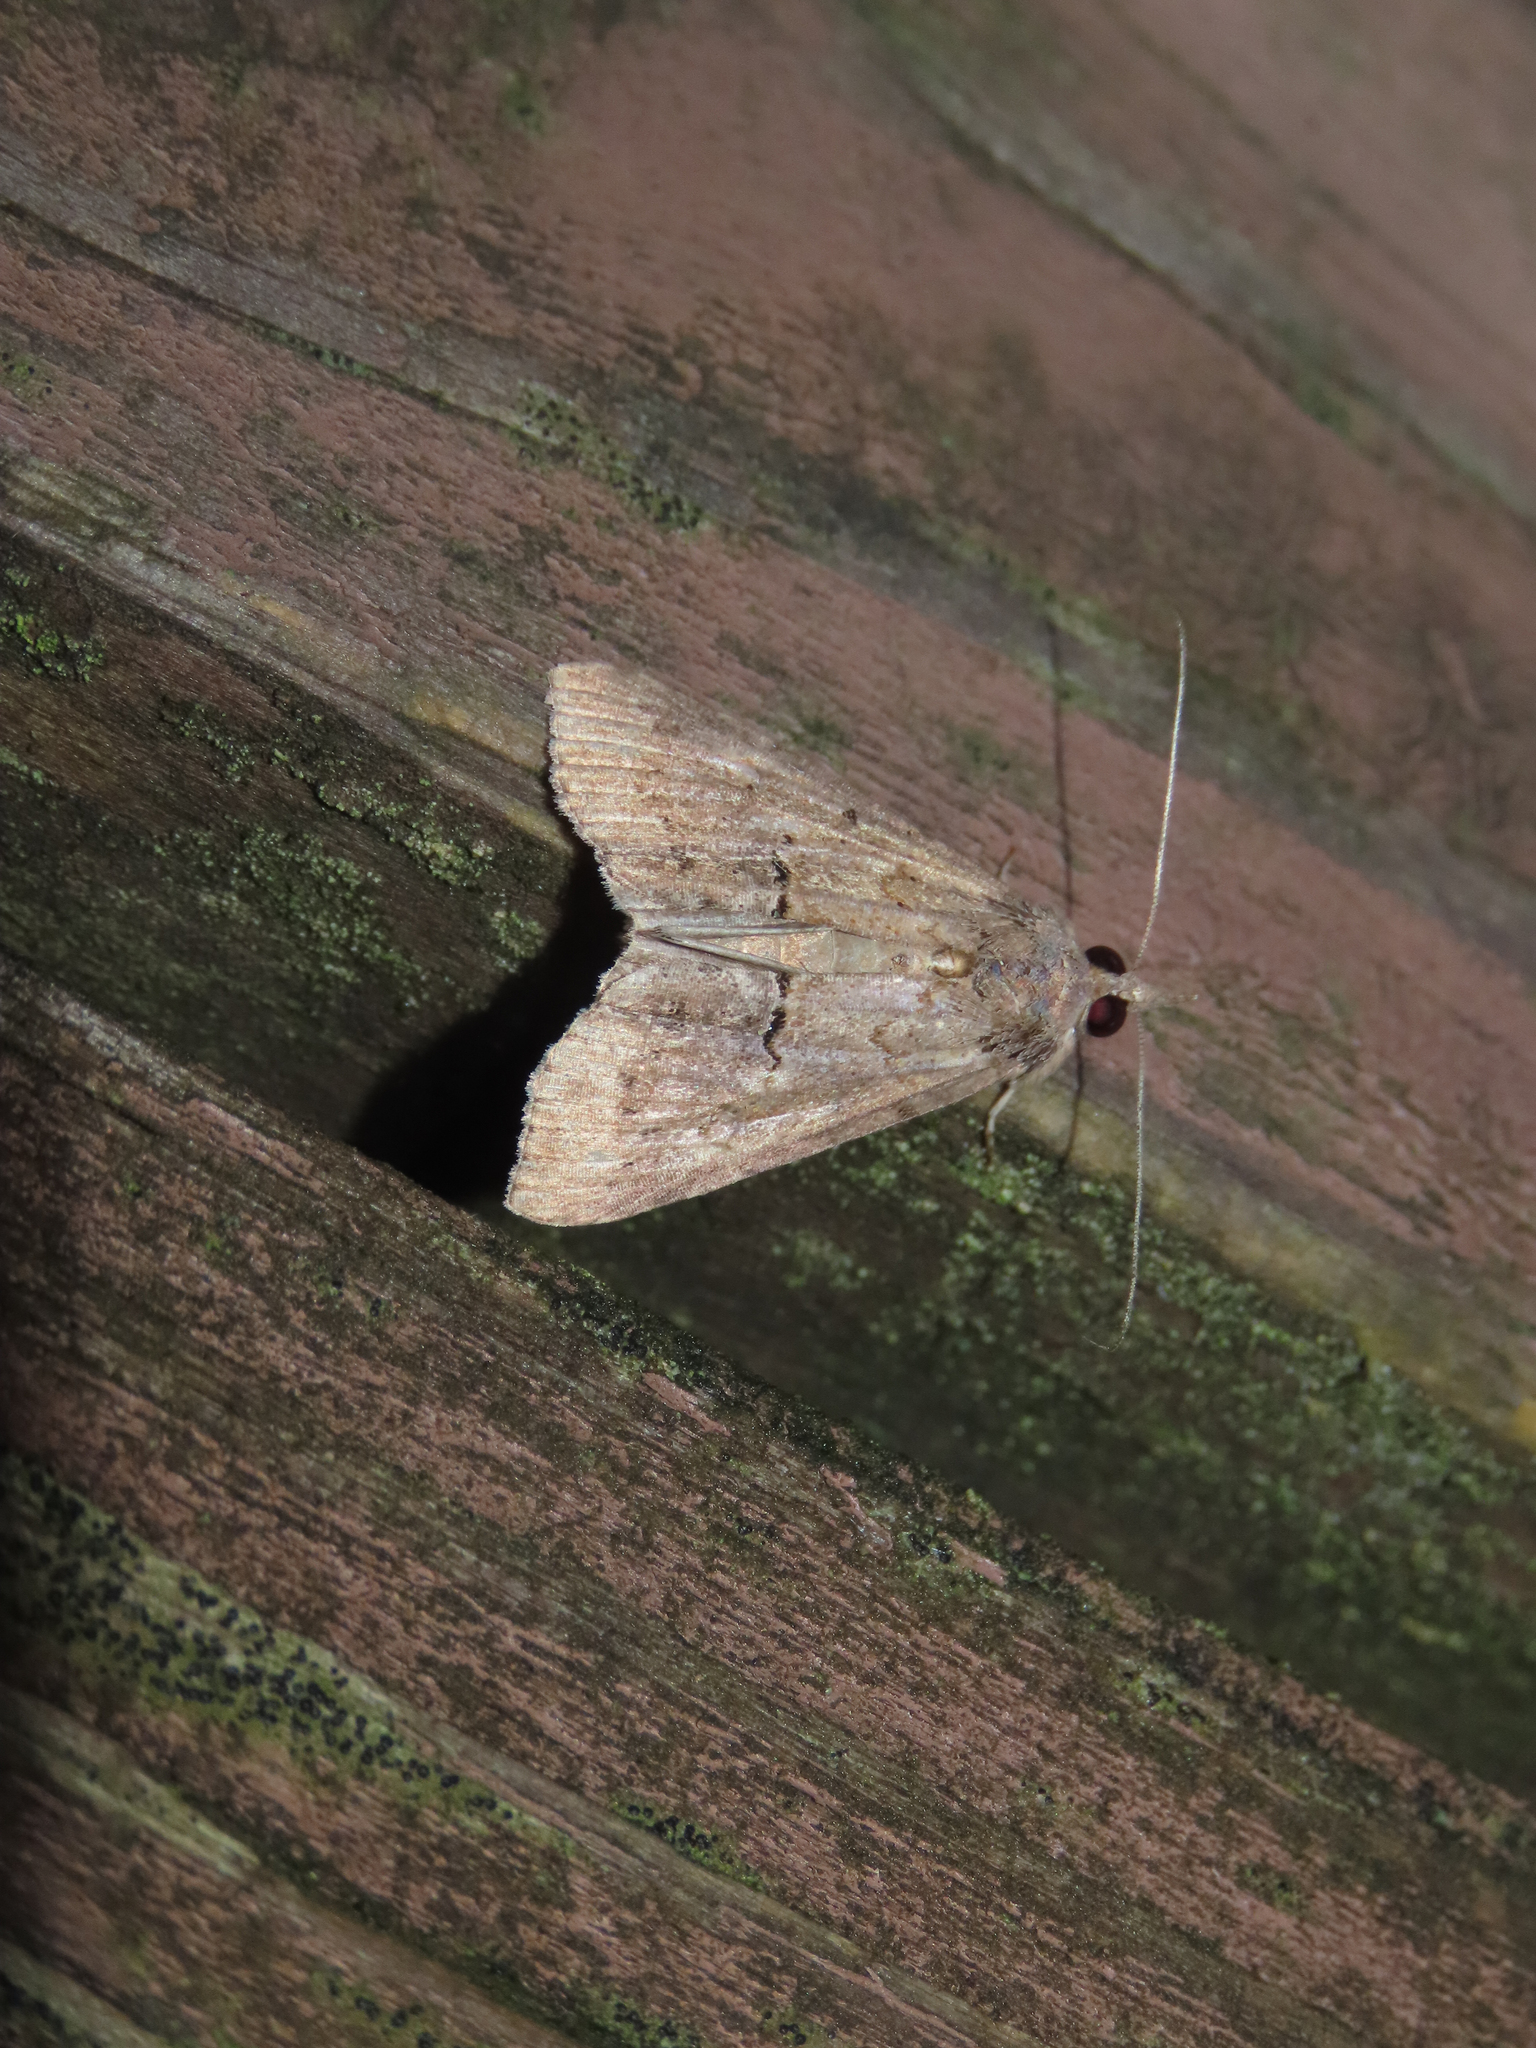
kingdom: Animalia
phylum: Arthropoda
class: Insecta
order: Lepidoptera
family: Erebidae
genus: Hypena
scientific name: Hypena scabra
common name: Green cloverworm
